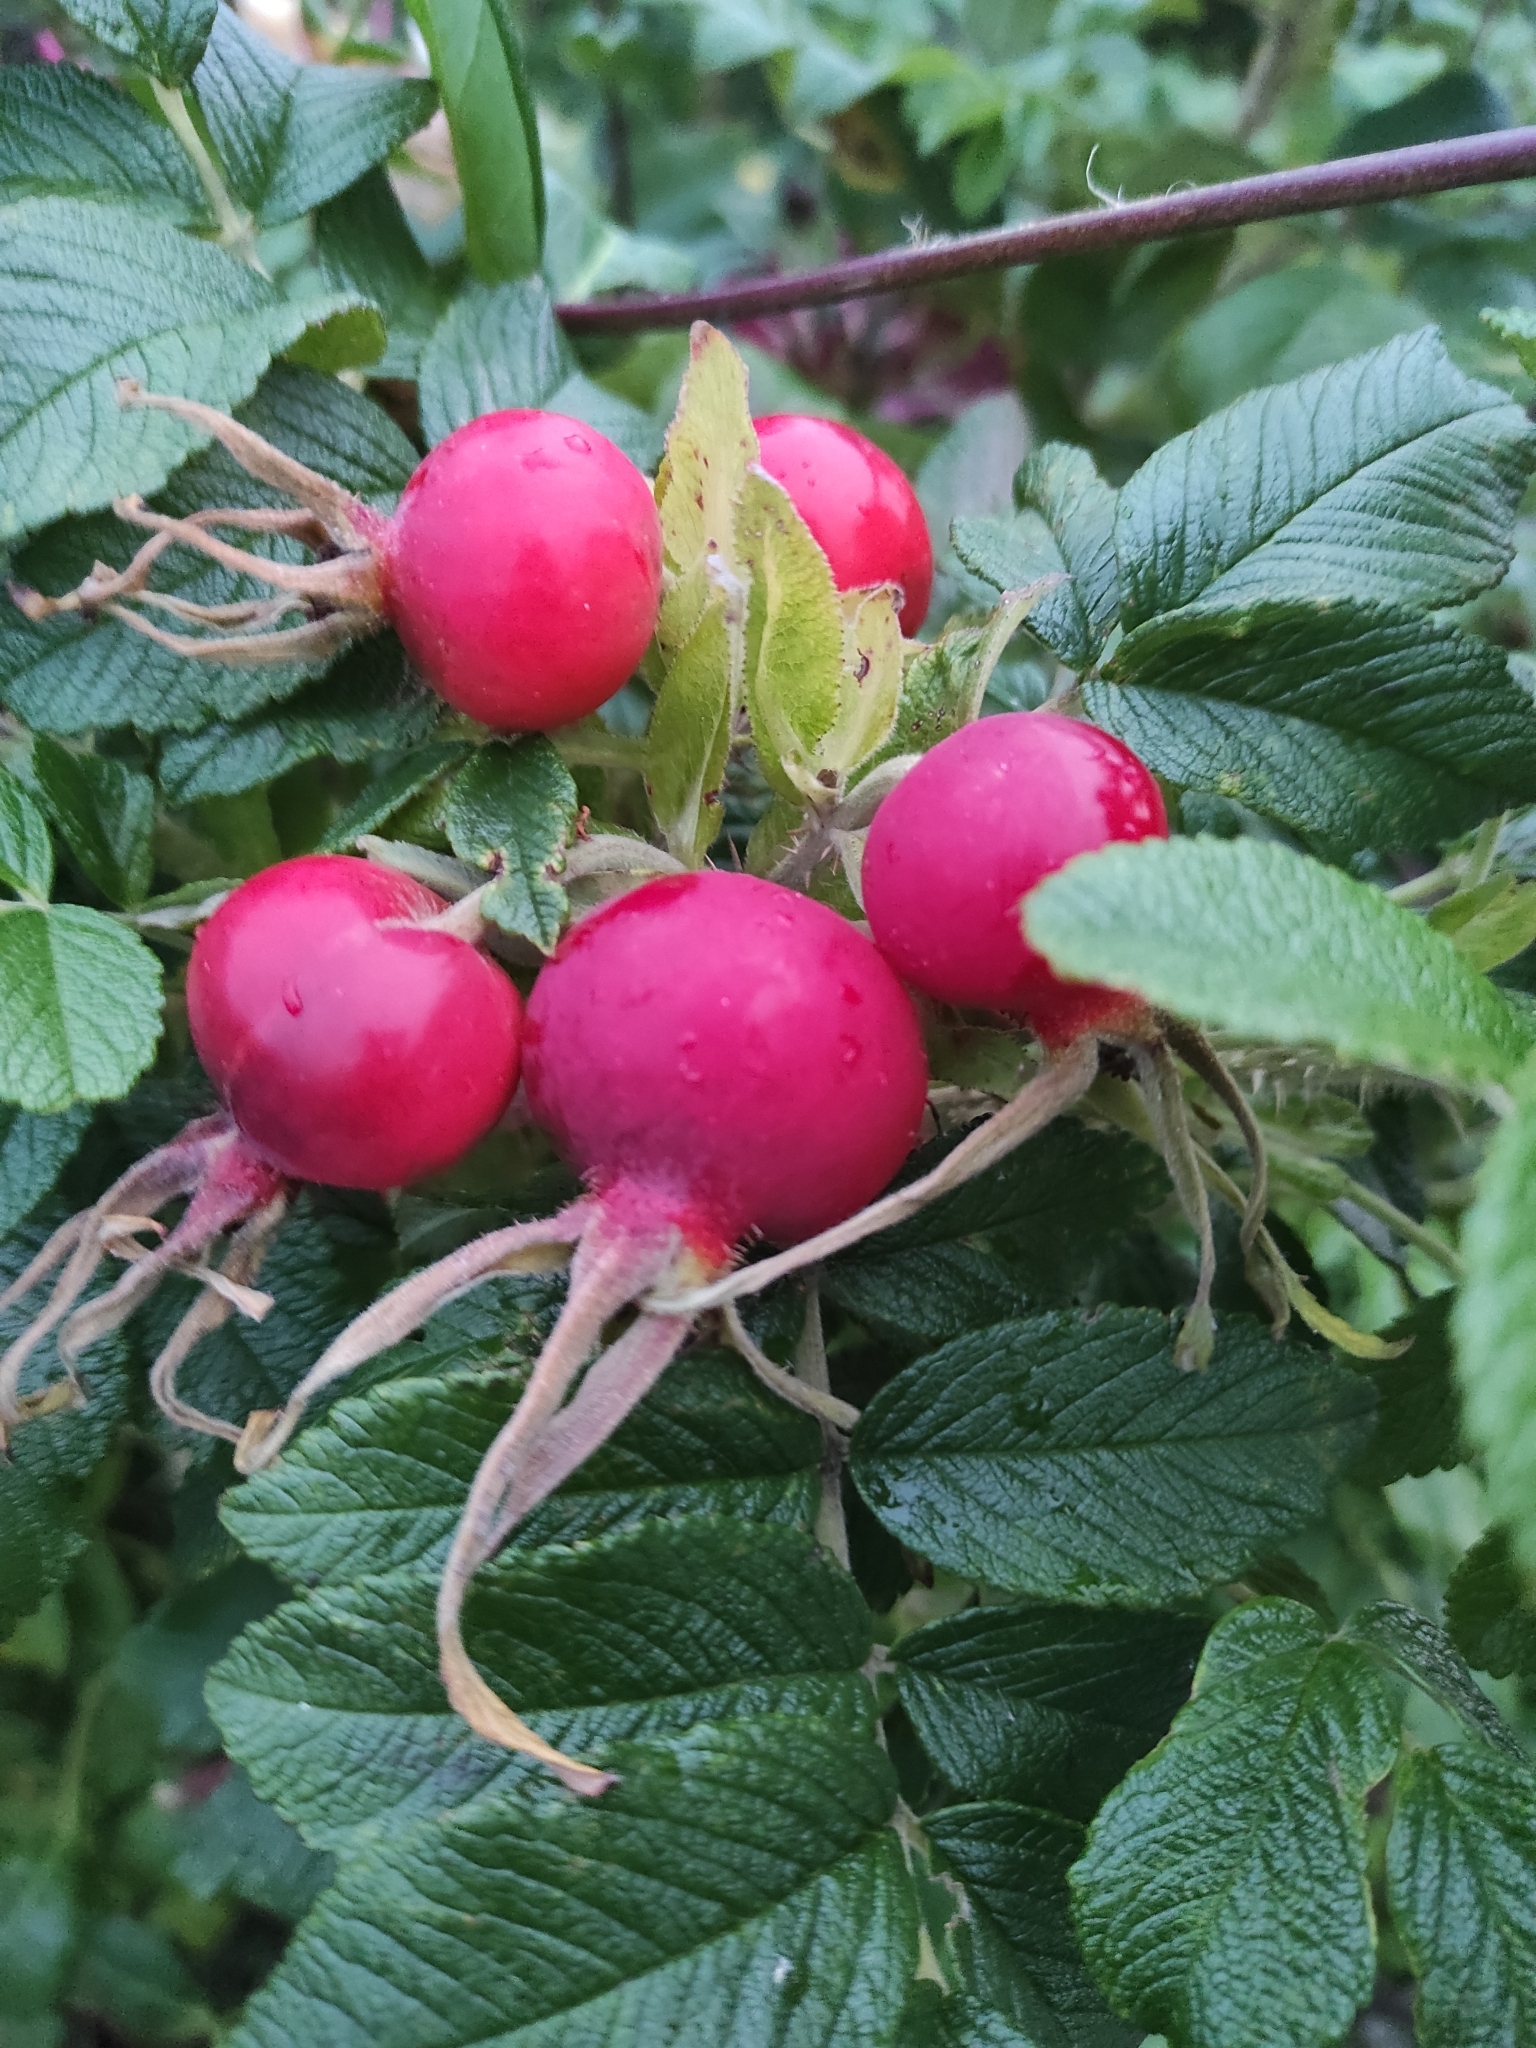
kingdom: Plantae
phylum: Tracheophyta
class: Magnoliopsida
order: Rosales
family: Rosaceae
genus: Rosa
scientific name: Rosa rugosa
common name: Japanese rose
